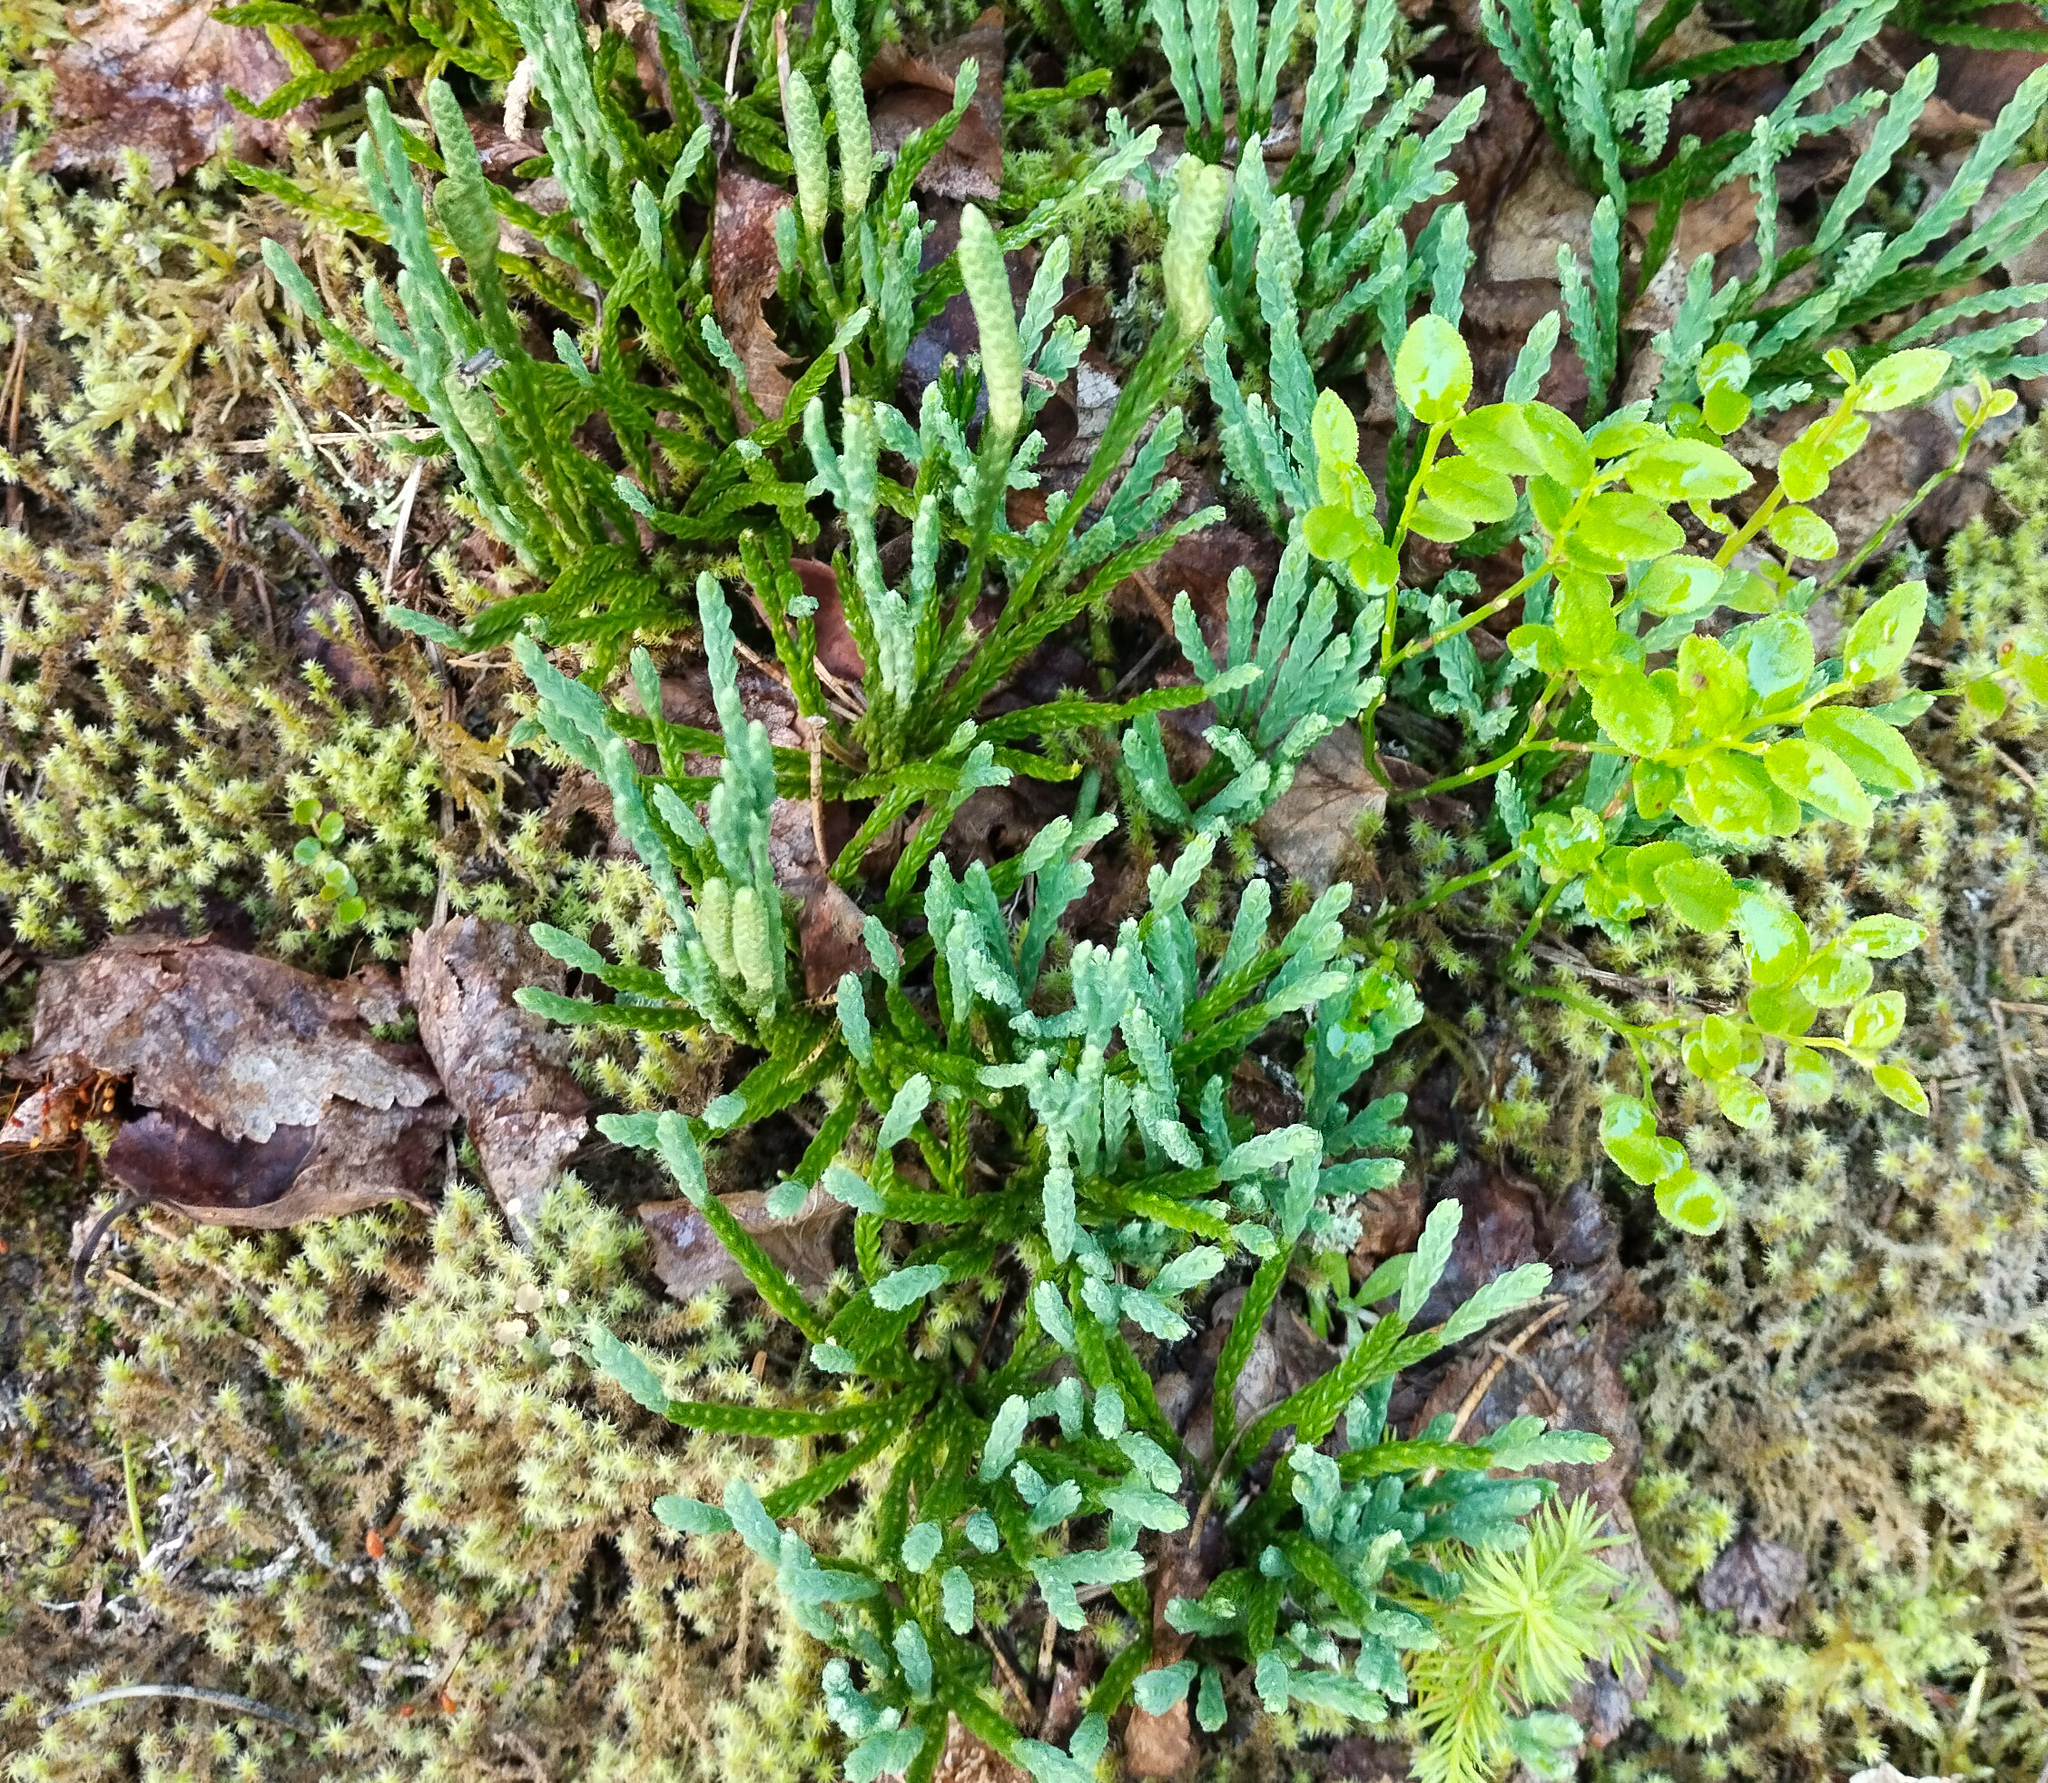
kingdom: Plantae
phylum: Tracheophyta
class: Lycopodiopsida
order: Lycopodiales
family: Lycopodiaceae
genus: Diphasiastrum
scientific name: Diphasiastrum alpinum
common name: Alpine clubmoss
